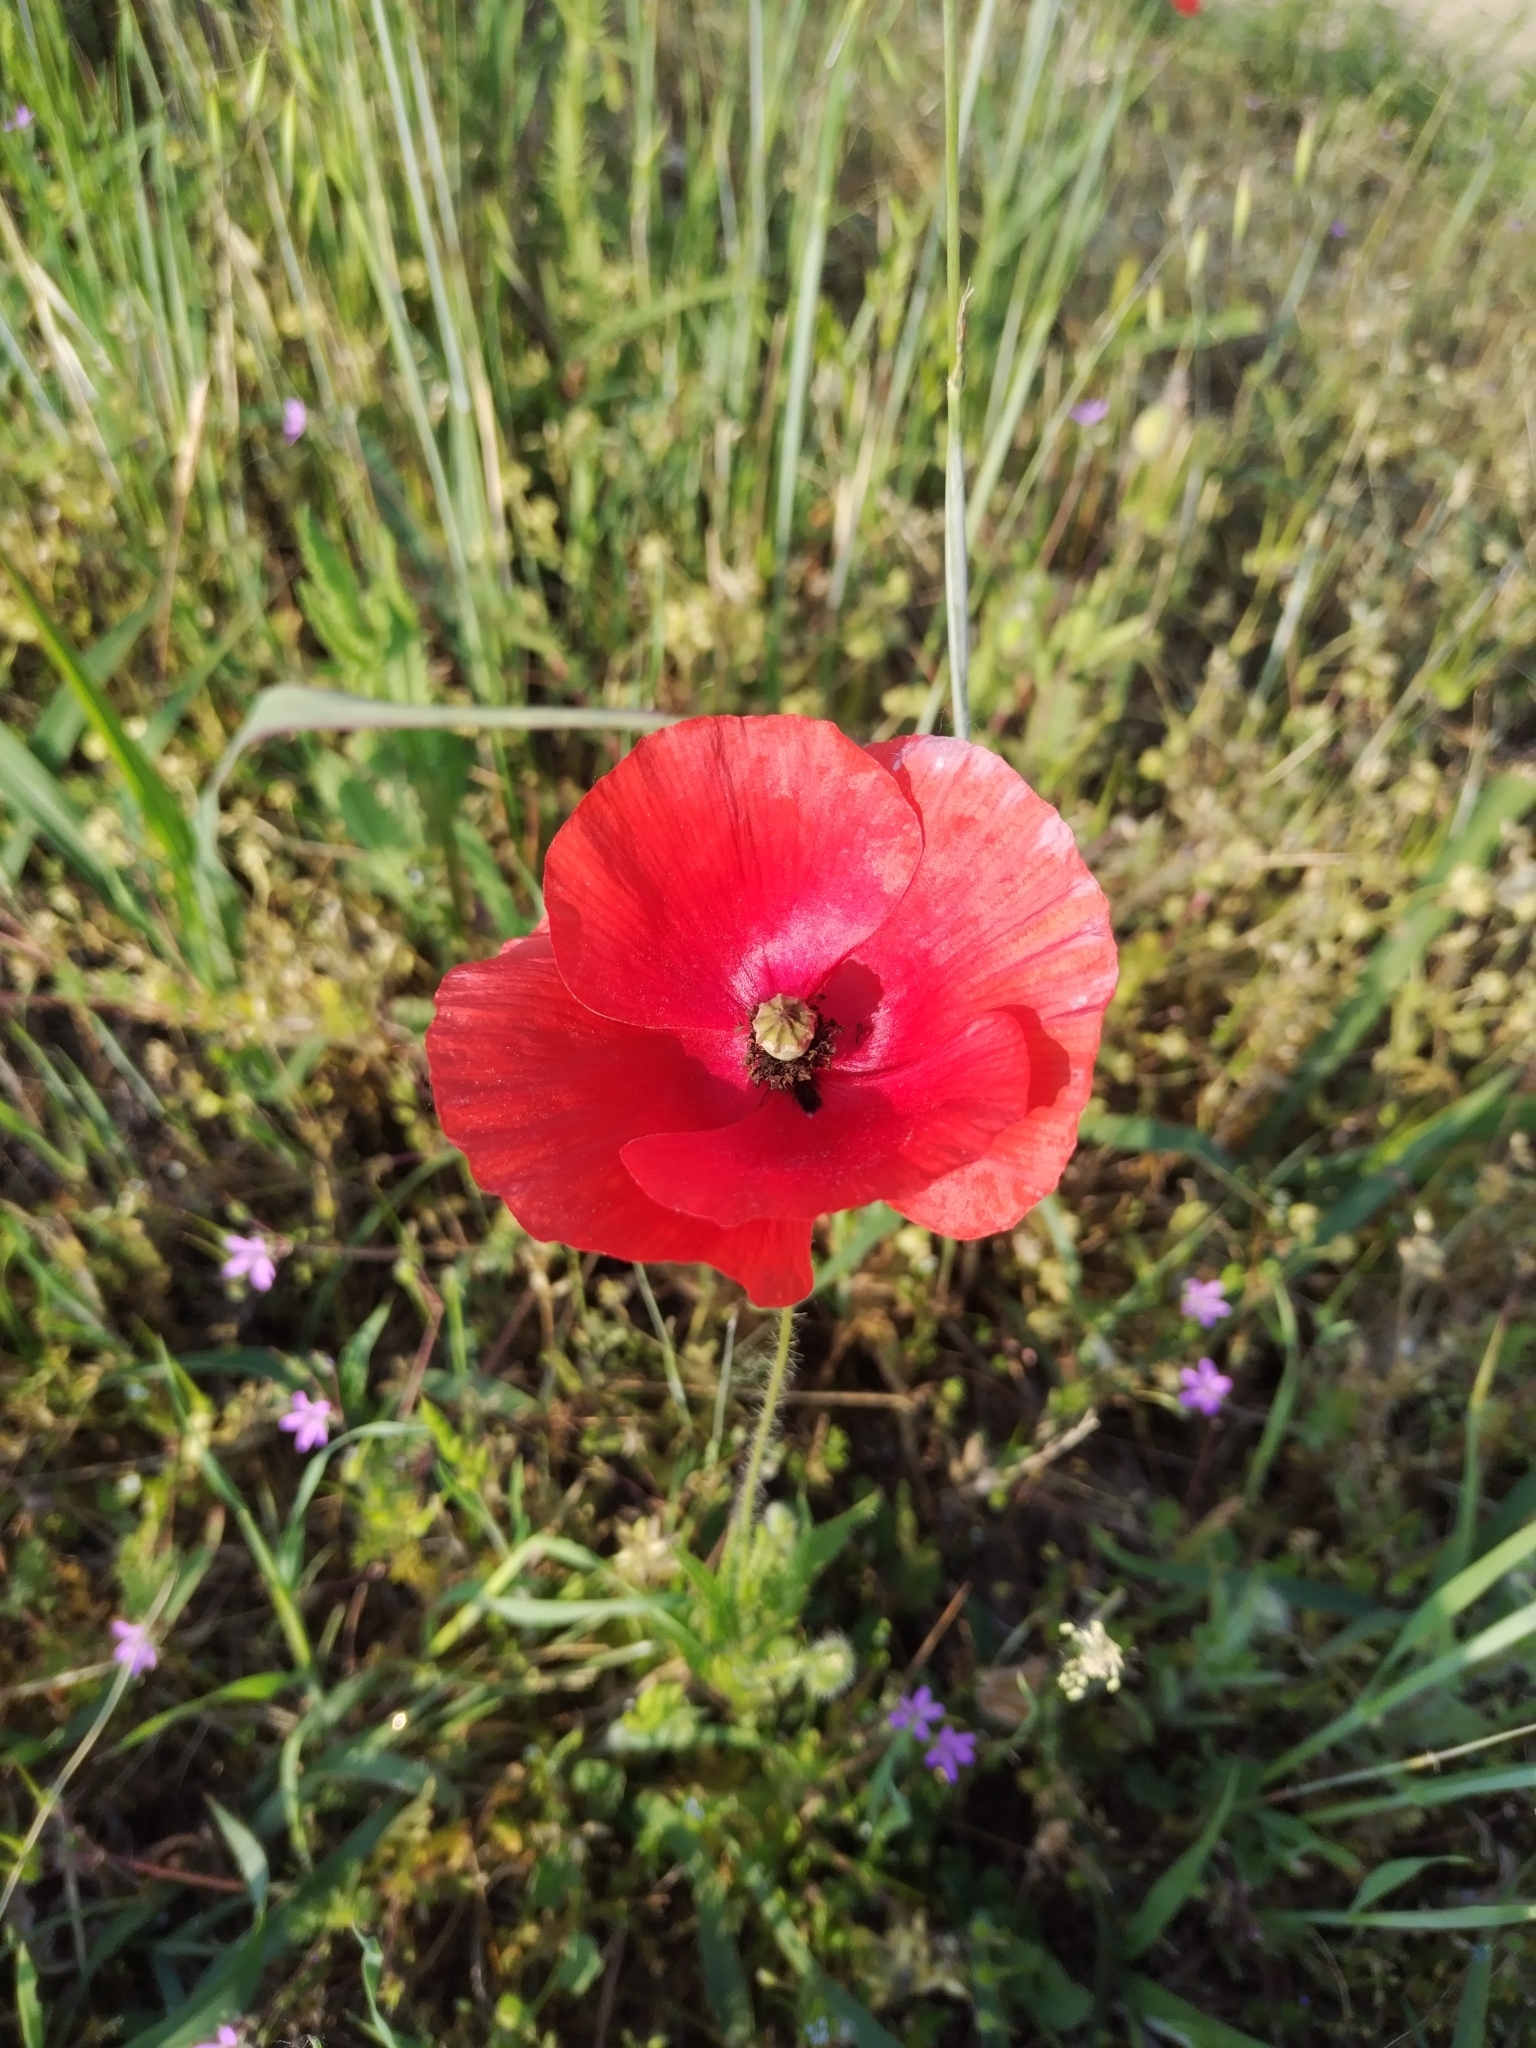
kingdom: Plantae
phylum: Tracheophyta
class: Magnoliopsida
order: Ranunculales
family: Papaveraceae
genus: Papaver
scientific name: Papaver rhoeas
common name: Corn poppy
